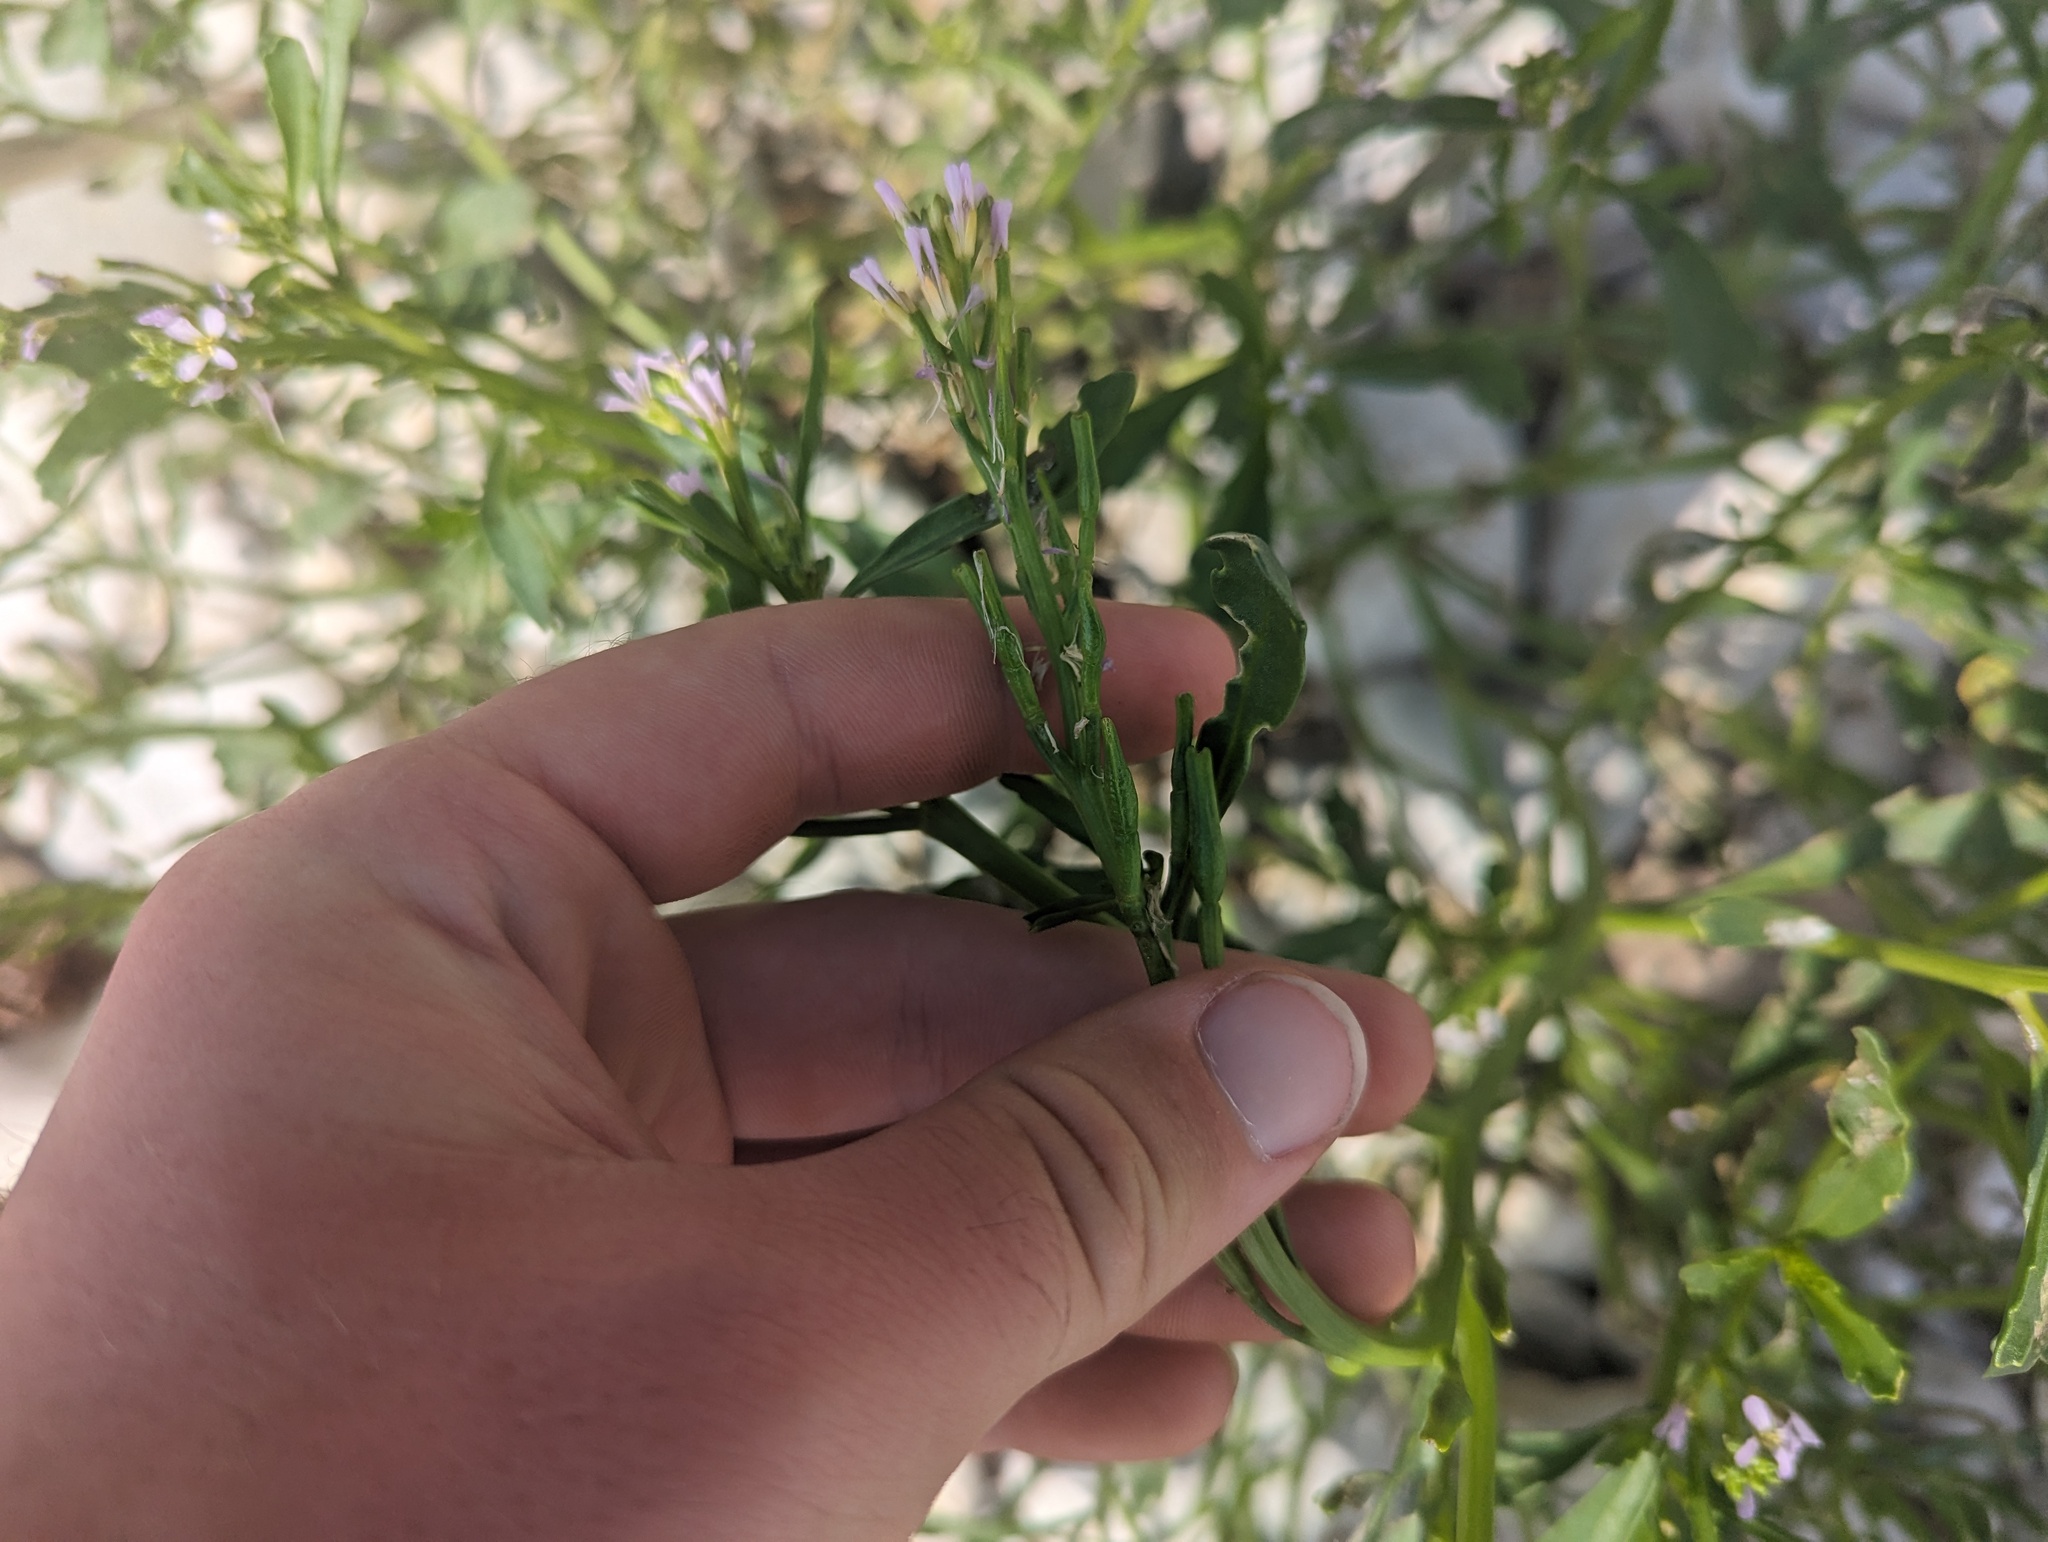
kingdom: Plantae
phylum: Tracheophyta
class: Magnoliopsida
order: Brassicales
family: Brassicaceae
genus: Cakile
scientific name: Cakile edentula
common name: American sea rocket
